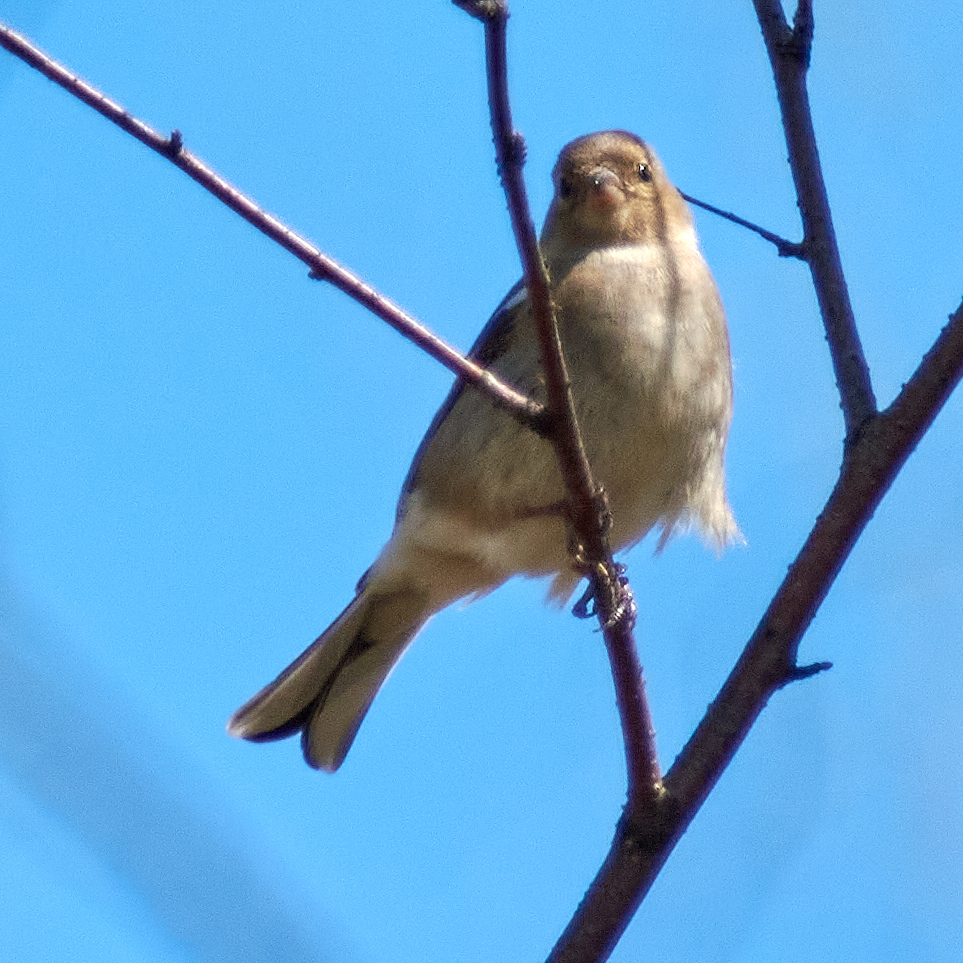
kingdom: Animalia
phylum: Chordata
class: Aves
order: Passeriformes
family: Fringillidae
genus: Fringilla
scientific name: Fringilla coelebs
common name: Common chaffinch
